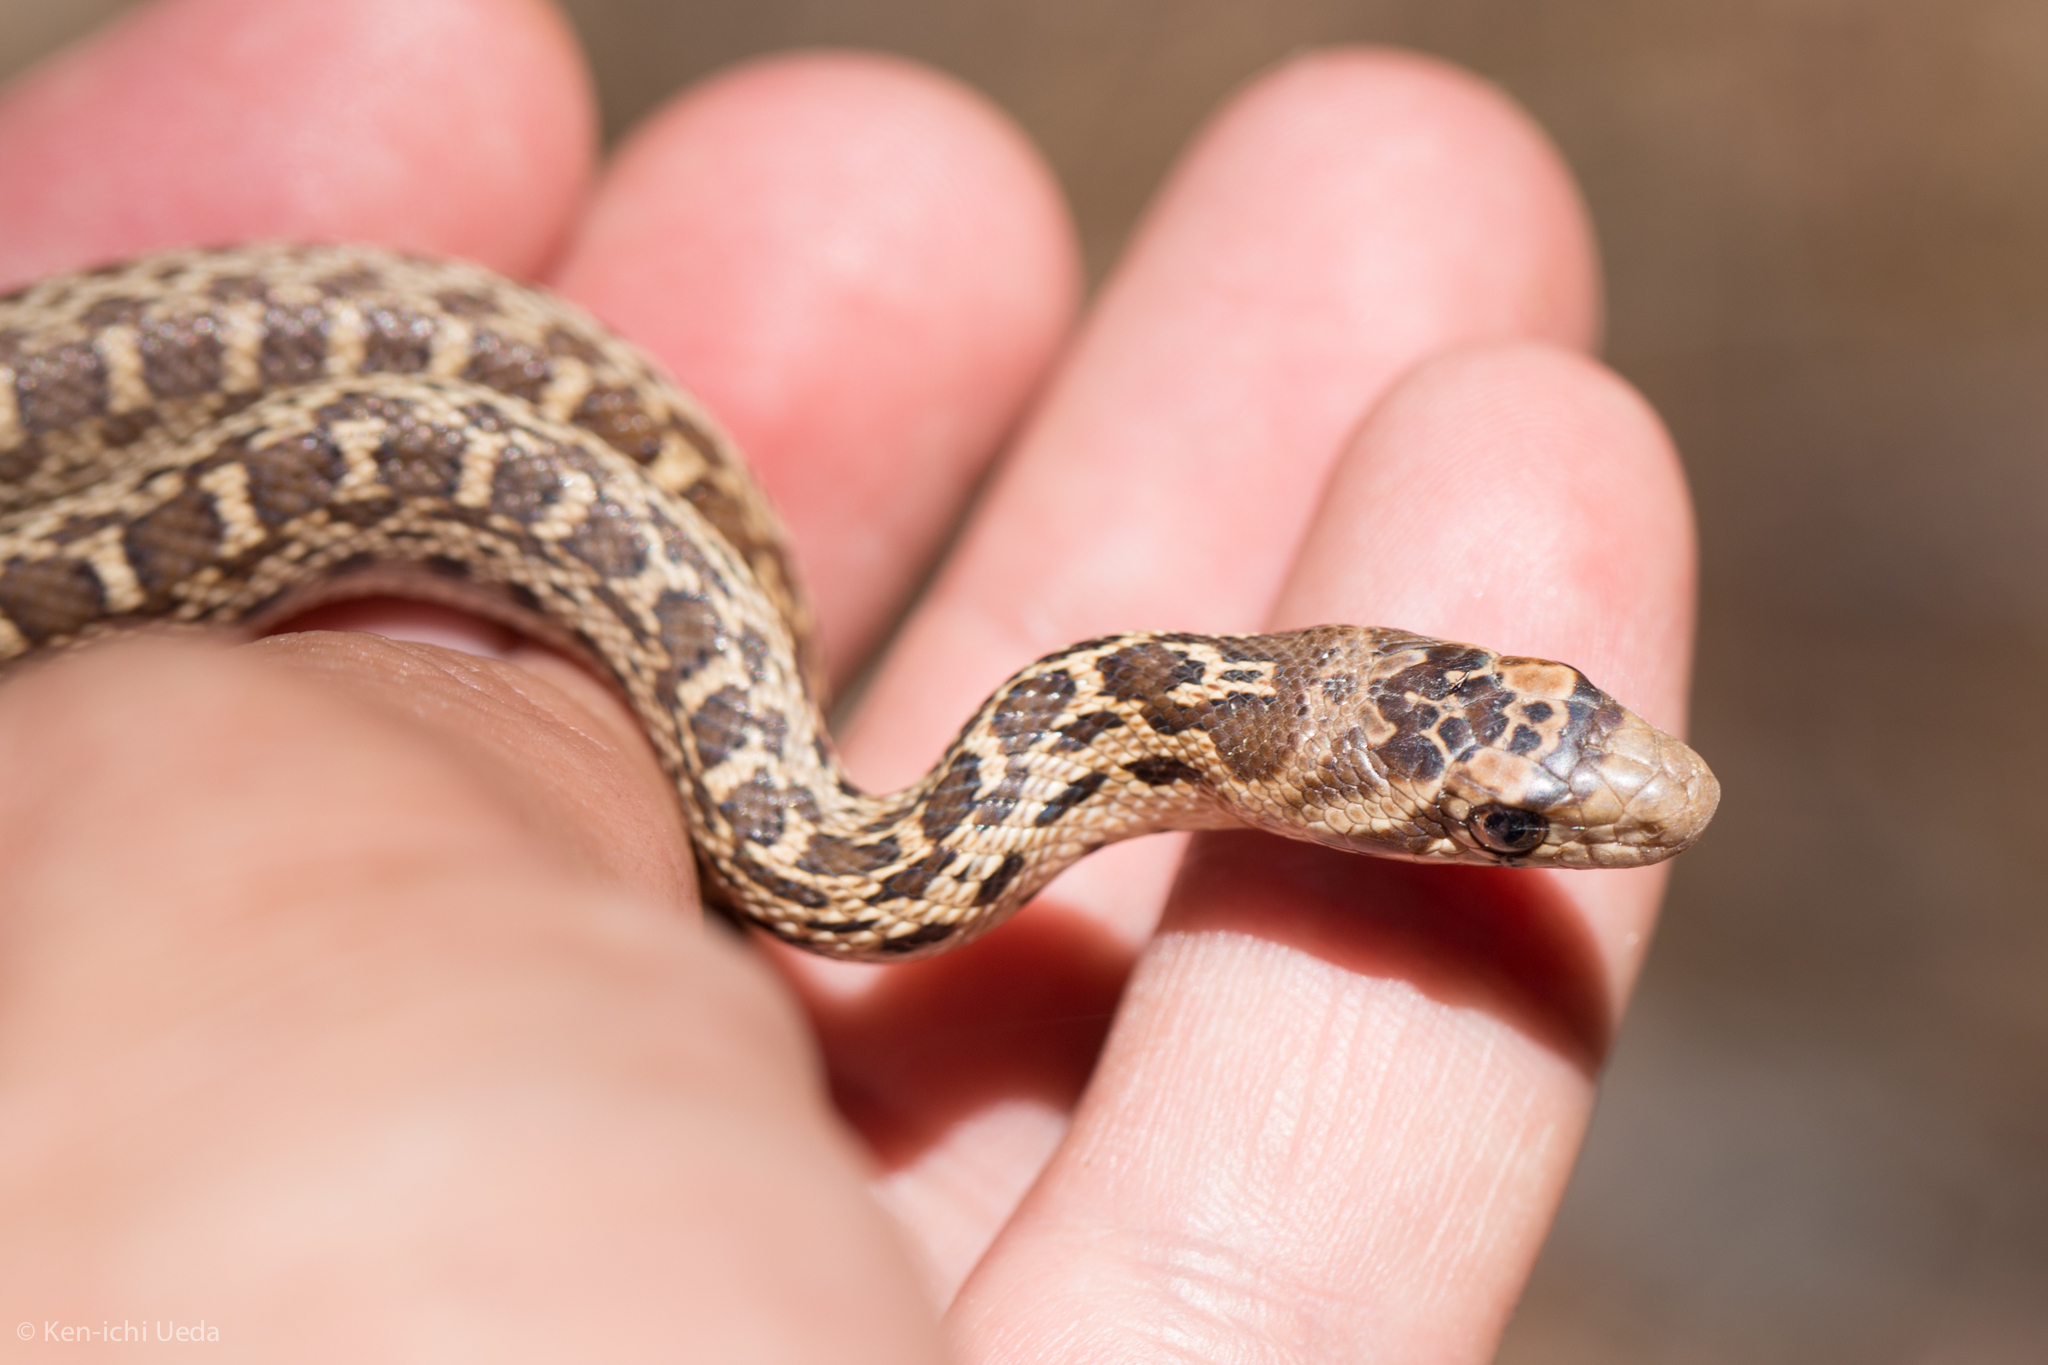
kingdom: Animalia
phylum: Chordata
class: Squamata
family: Colubridae
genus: Pituophis
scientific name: Pituophis catenifer
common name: Gopher snake
